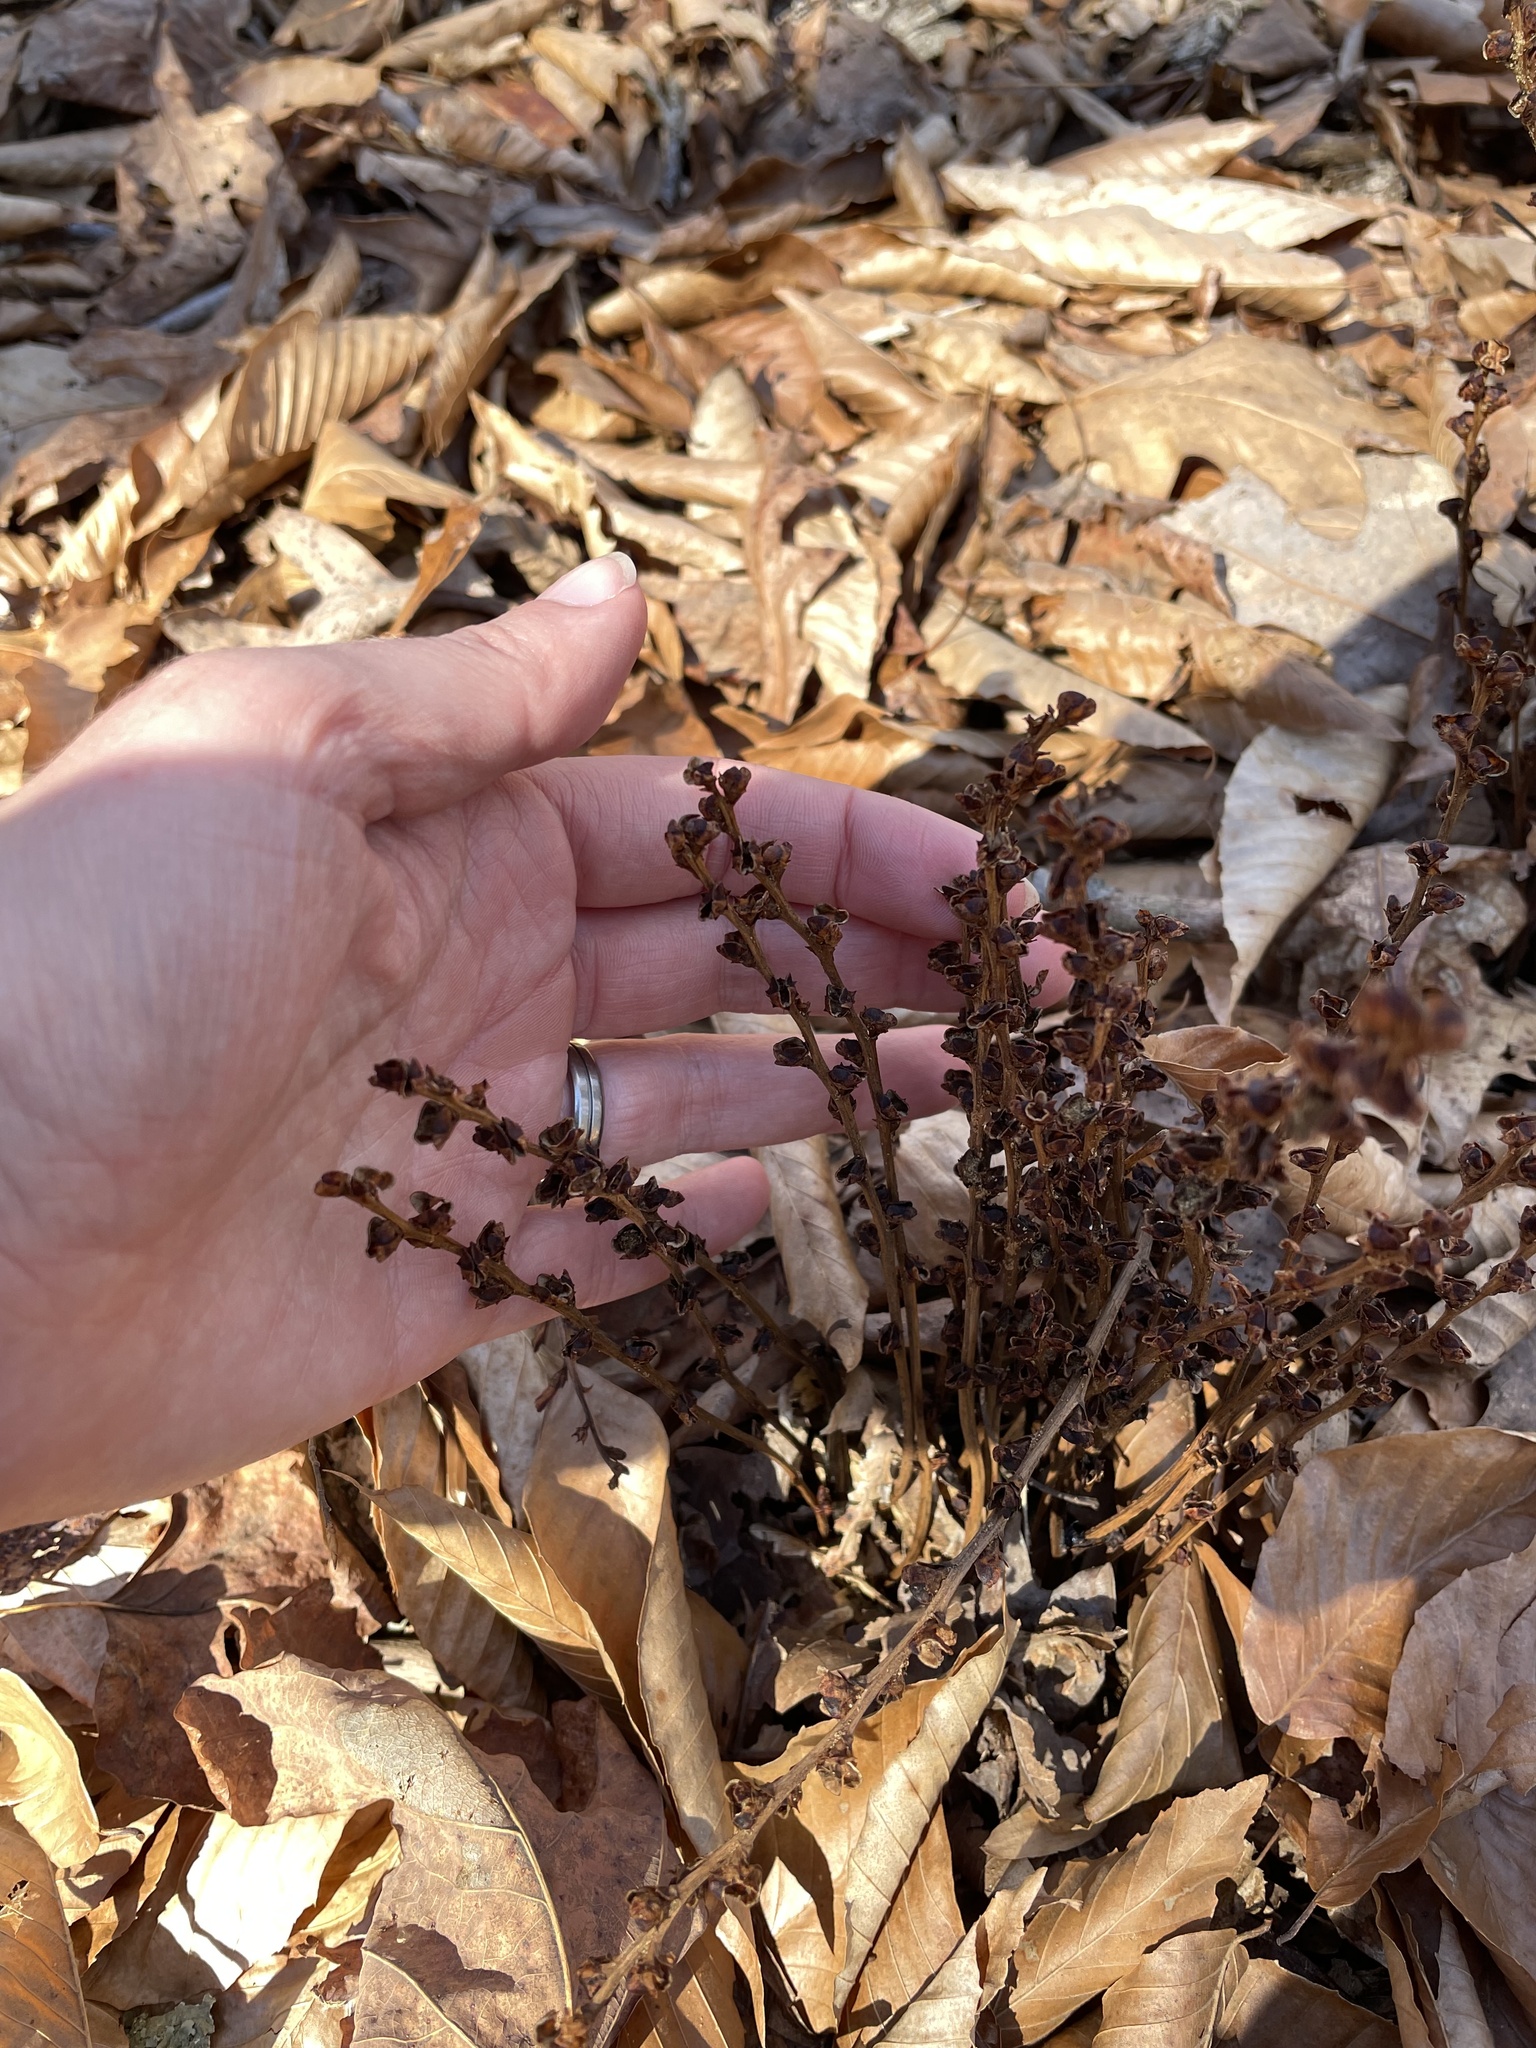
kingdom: Plantae
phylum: Tracheophyta
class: Magnoliopsida
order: Lamiales
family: Orobanchaceae
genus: Epifagus
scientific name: Epifagus virginiana
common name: Beechdrops
